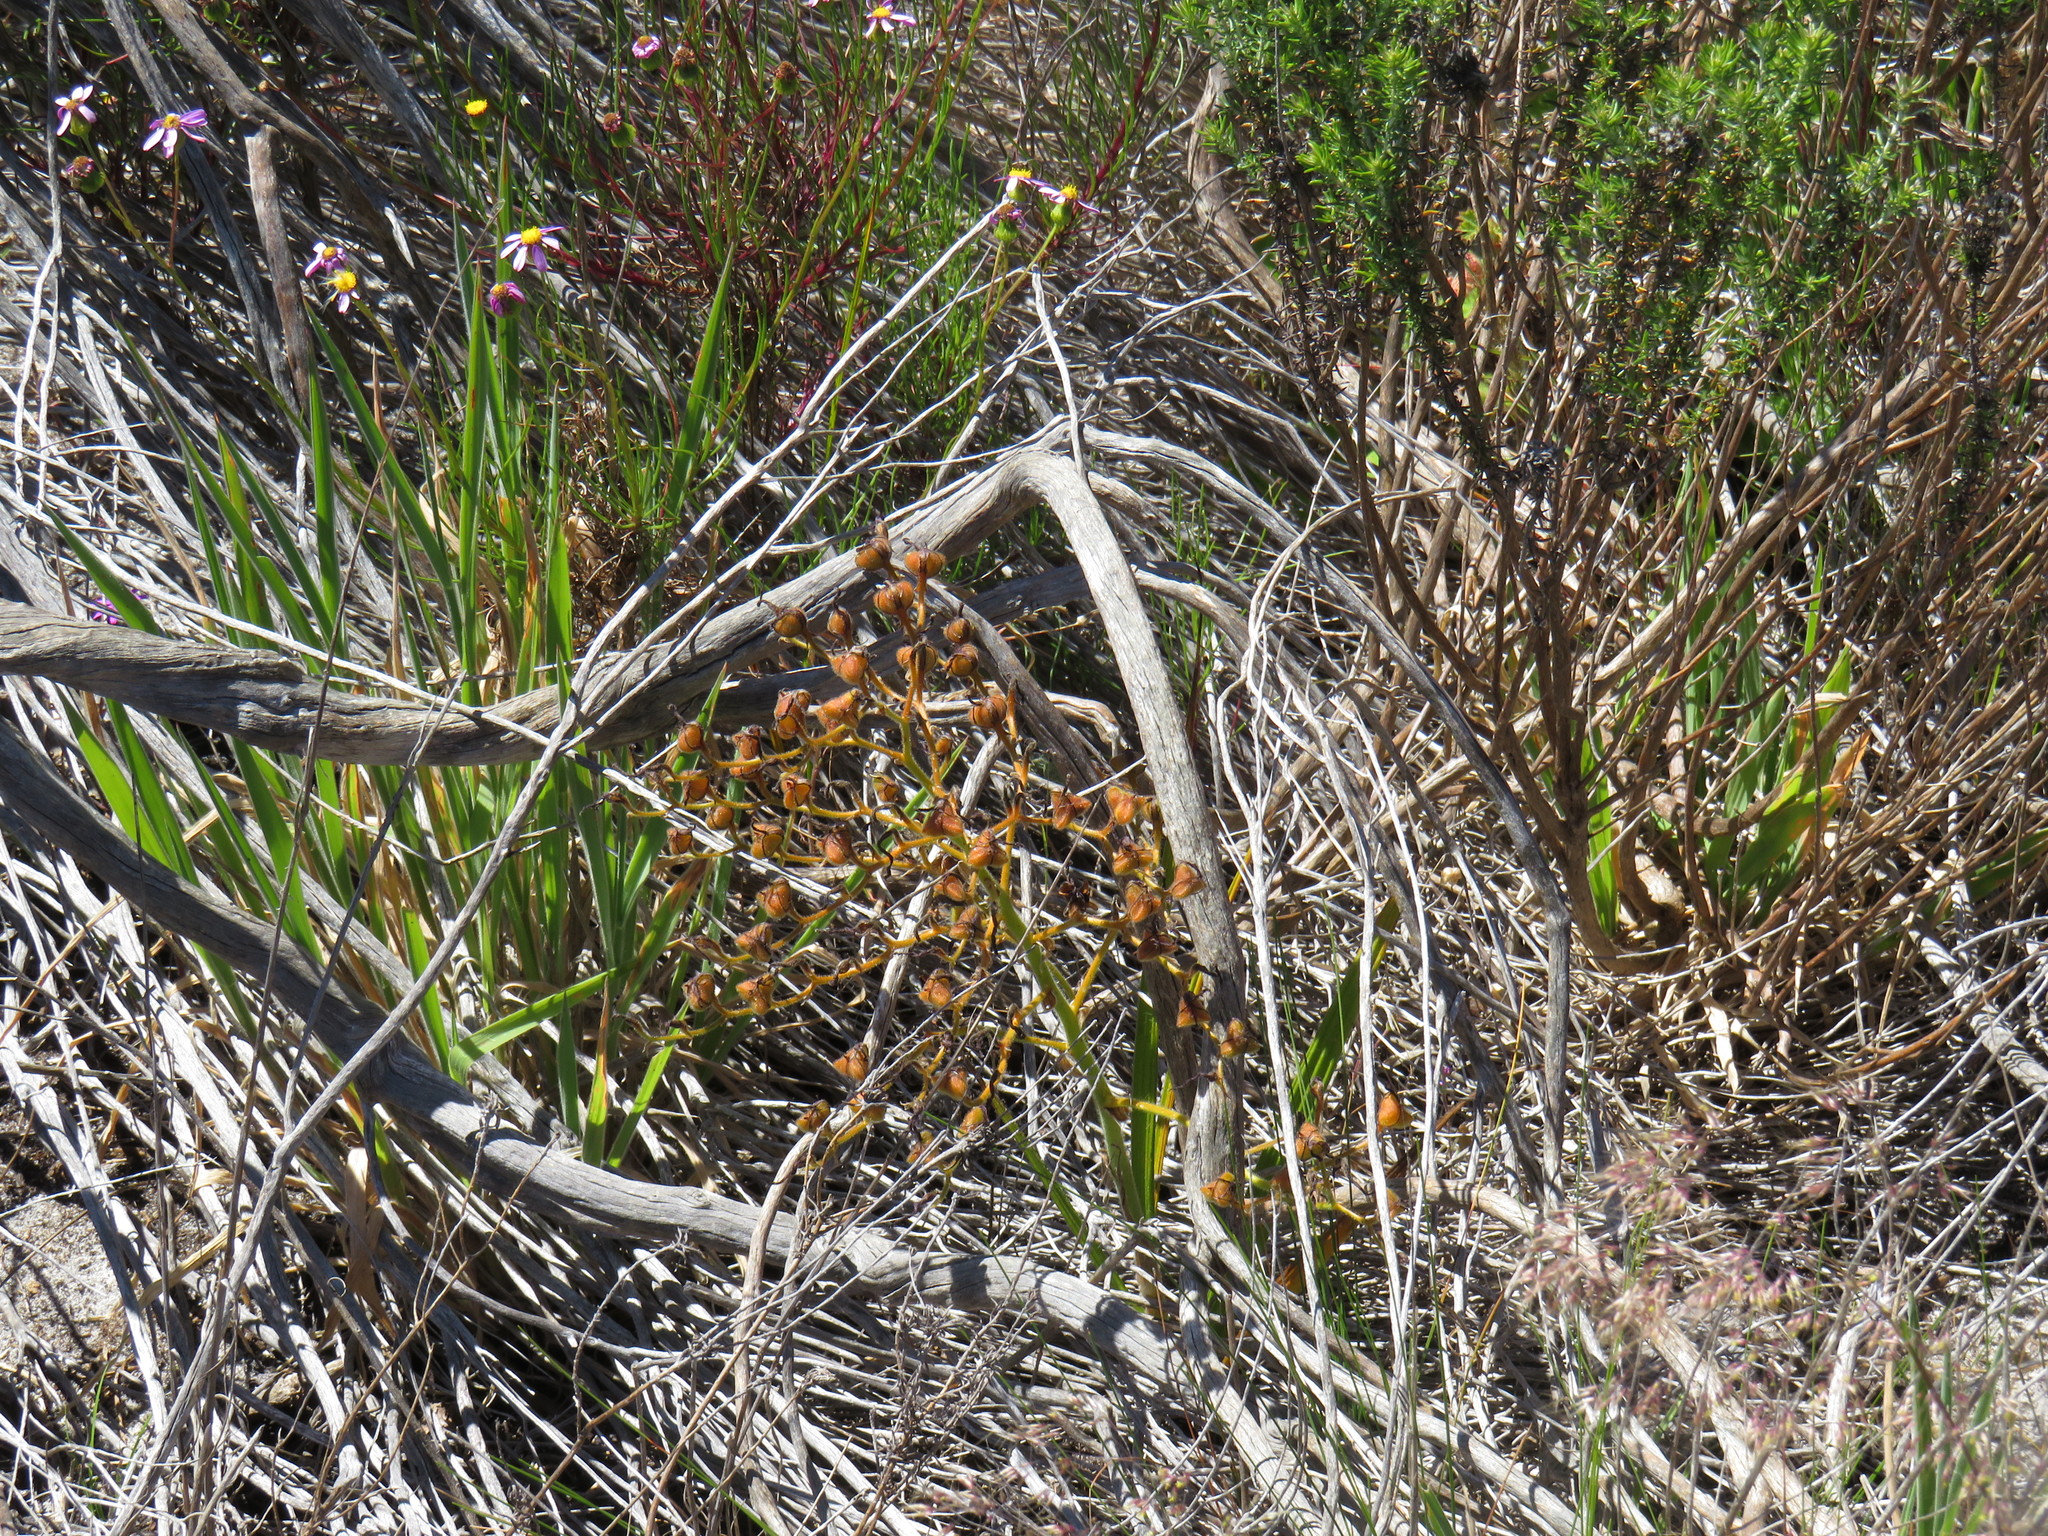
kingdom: Plantae
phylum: Tracheophyta
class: Liliopsida
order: Commelinales
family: Haemodoraceae
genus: Wachendorfia
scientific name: Wachendorfia paniculata
